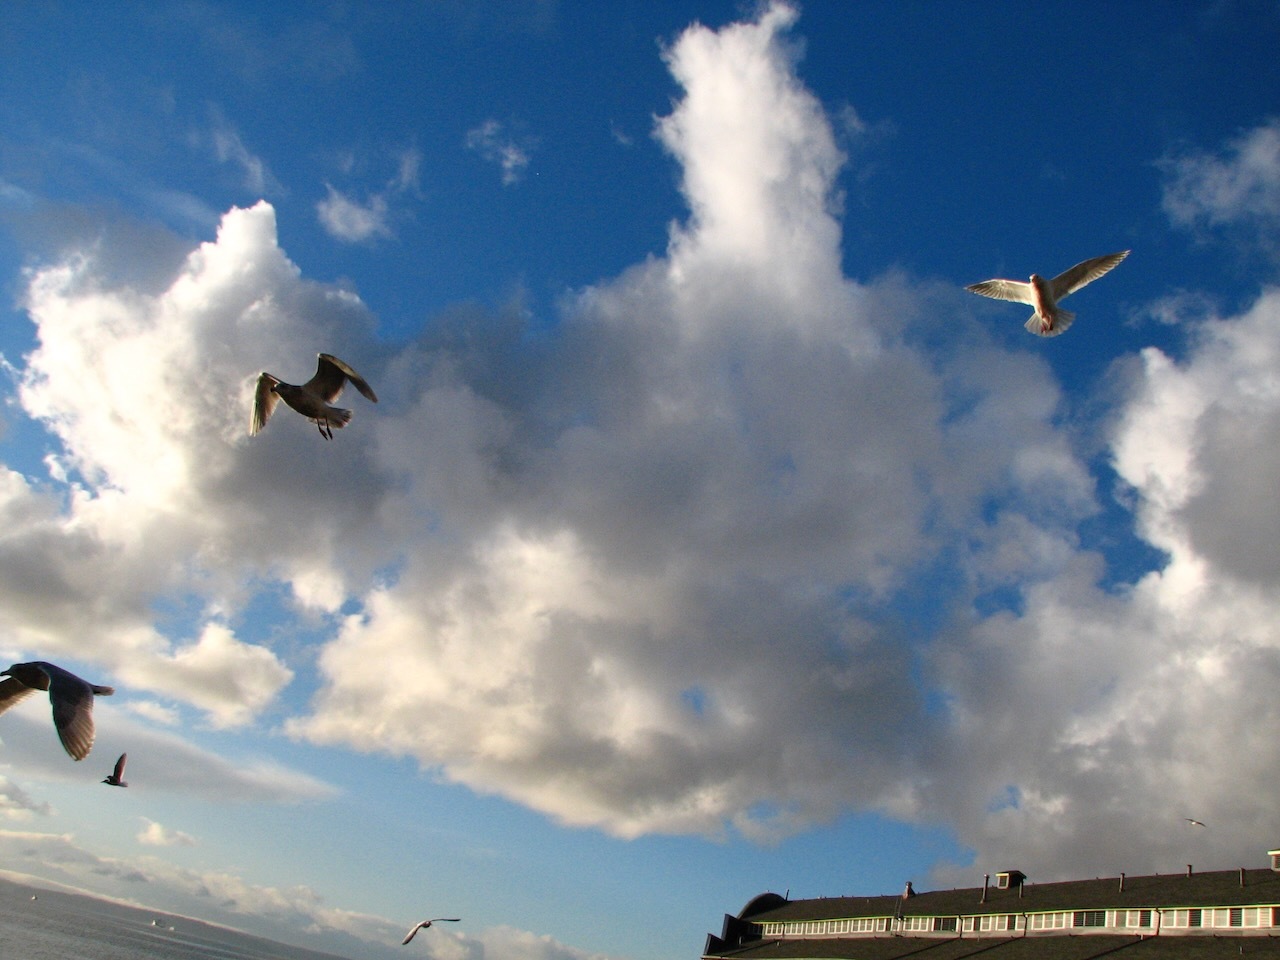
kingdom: Animalia
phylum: Chordata
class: Aves
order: Charadriiformes
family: Laridae
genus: Larus
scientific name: Larus
